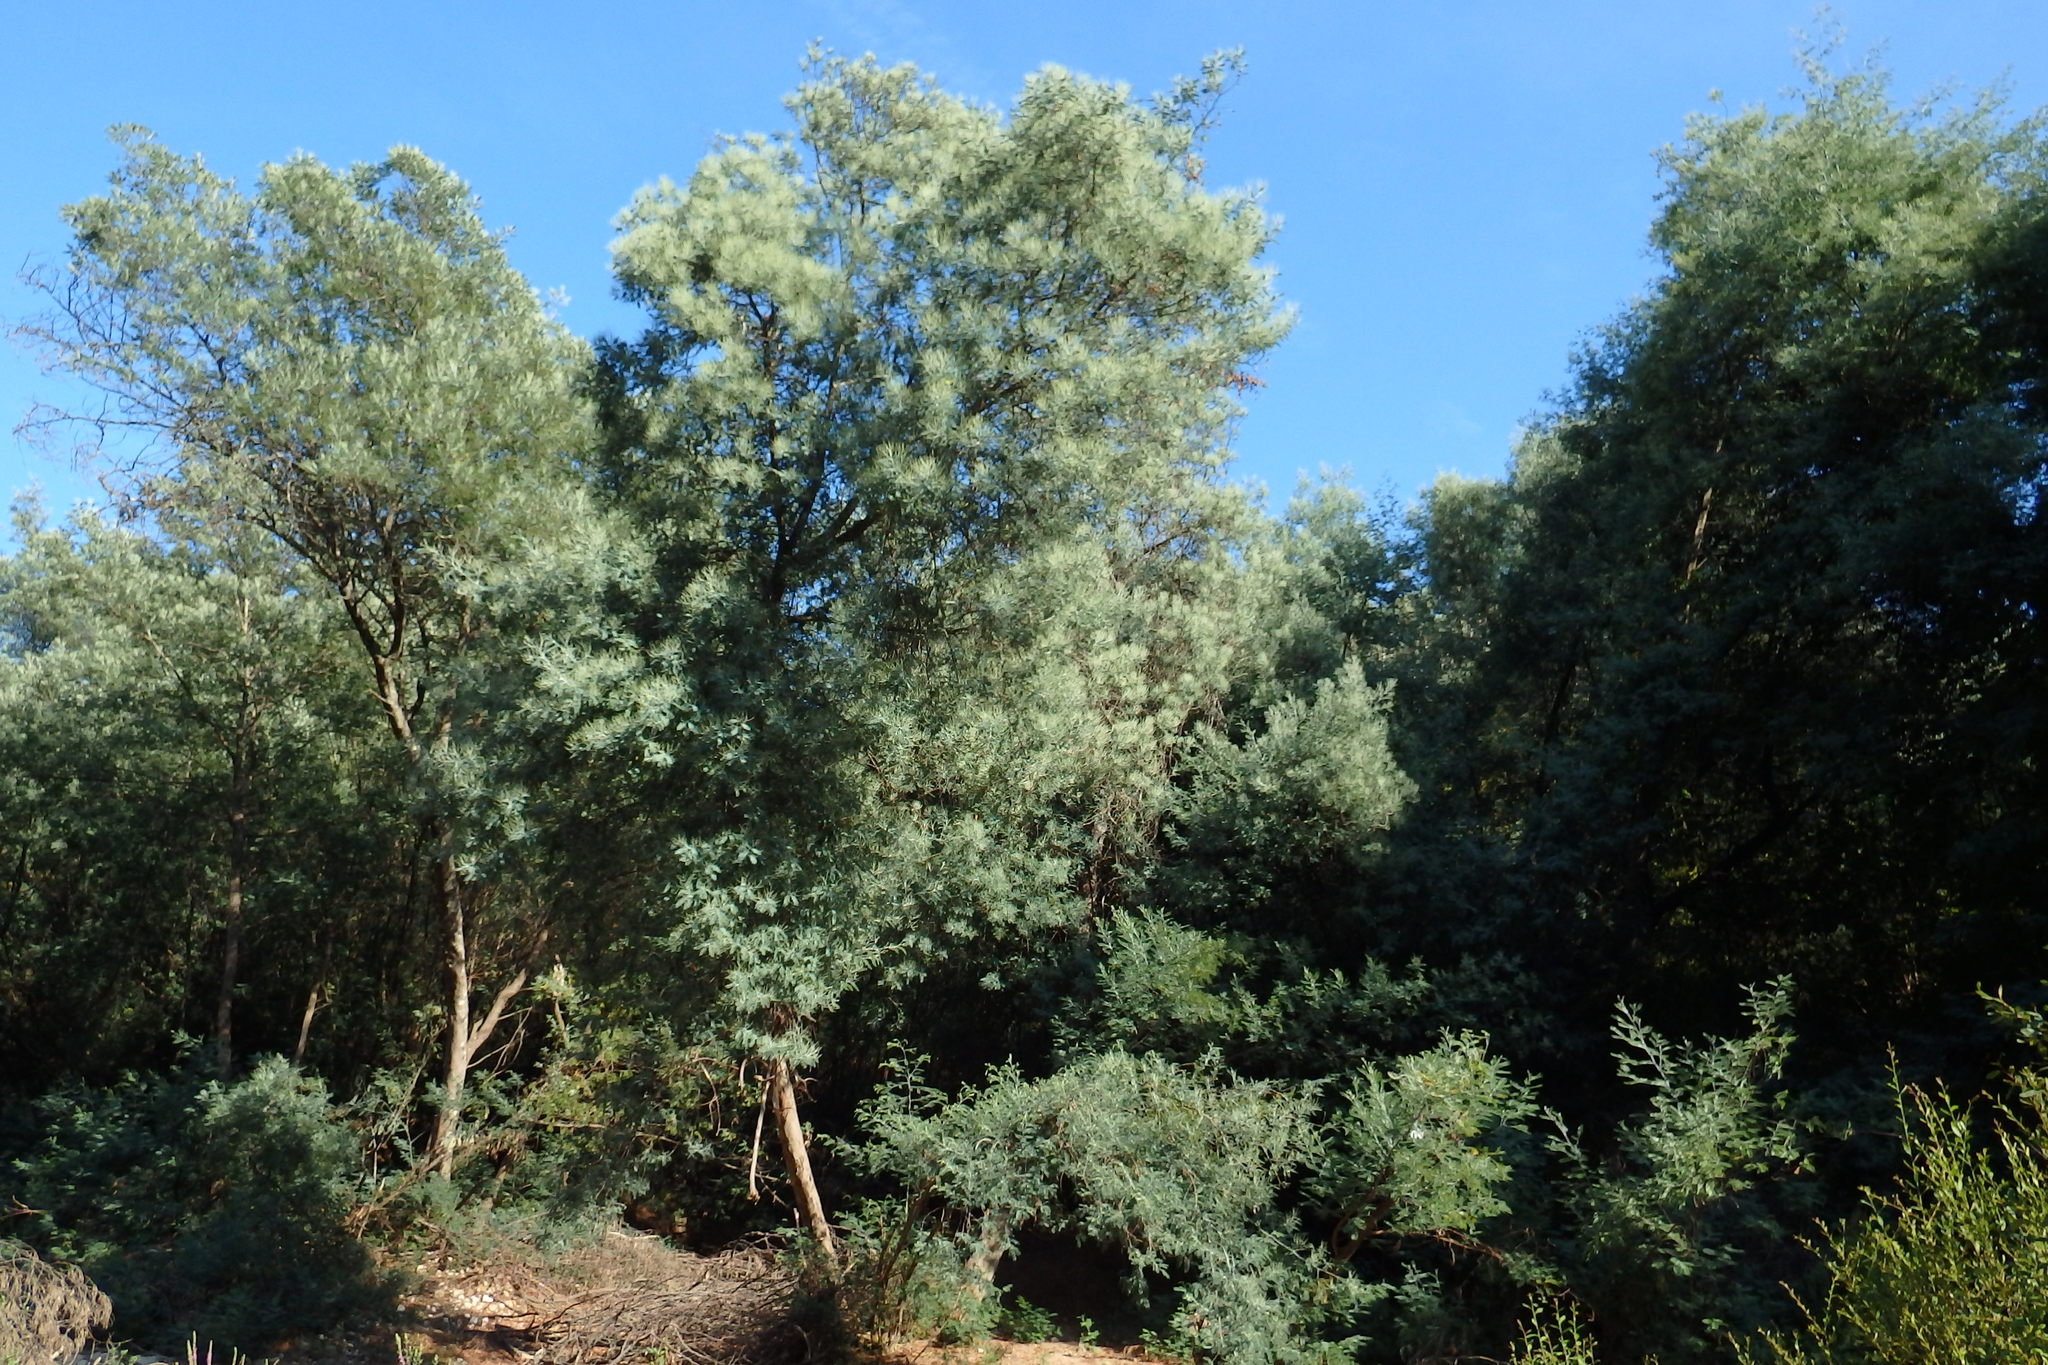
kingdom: Plantae
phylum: Tracheophyta
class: Magnoliopsida
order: Fabales
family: Fabaceae
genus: Acacia
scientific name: Acacia dealbata
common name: Silver wattle
